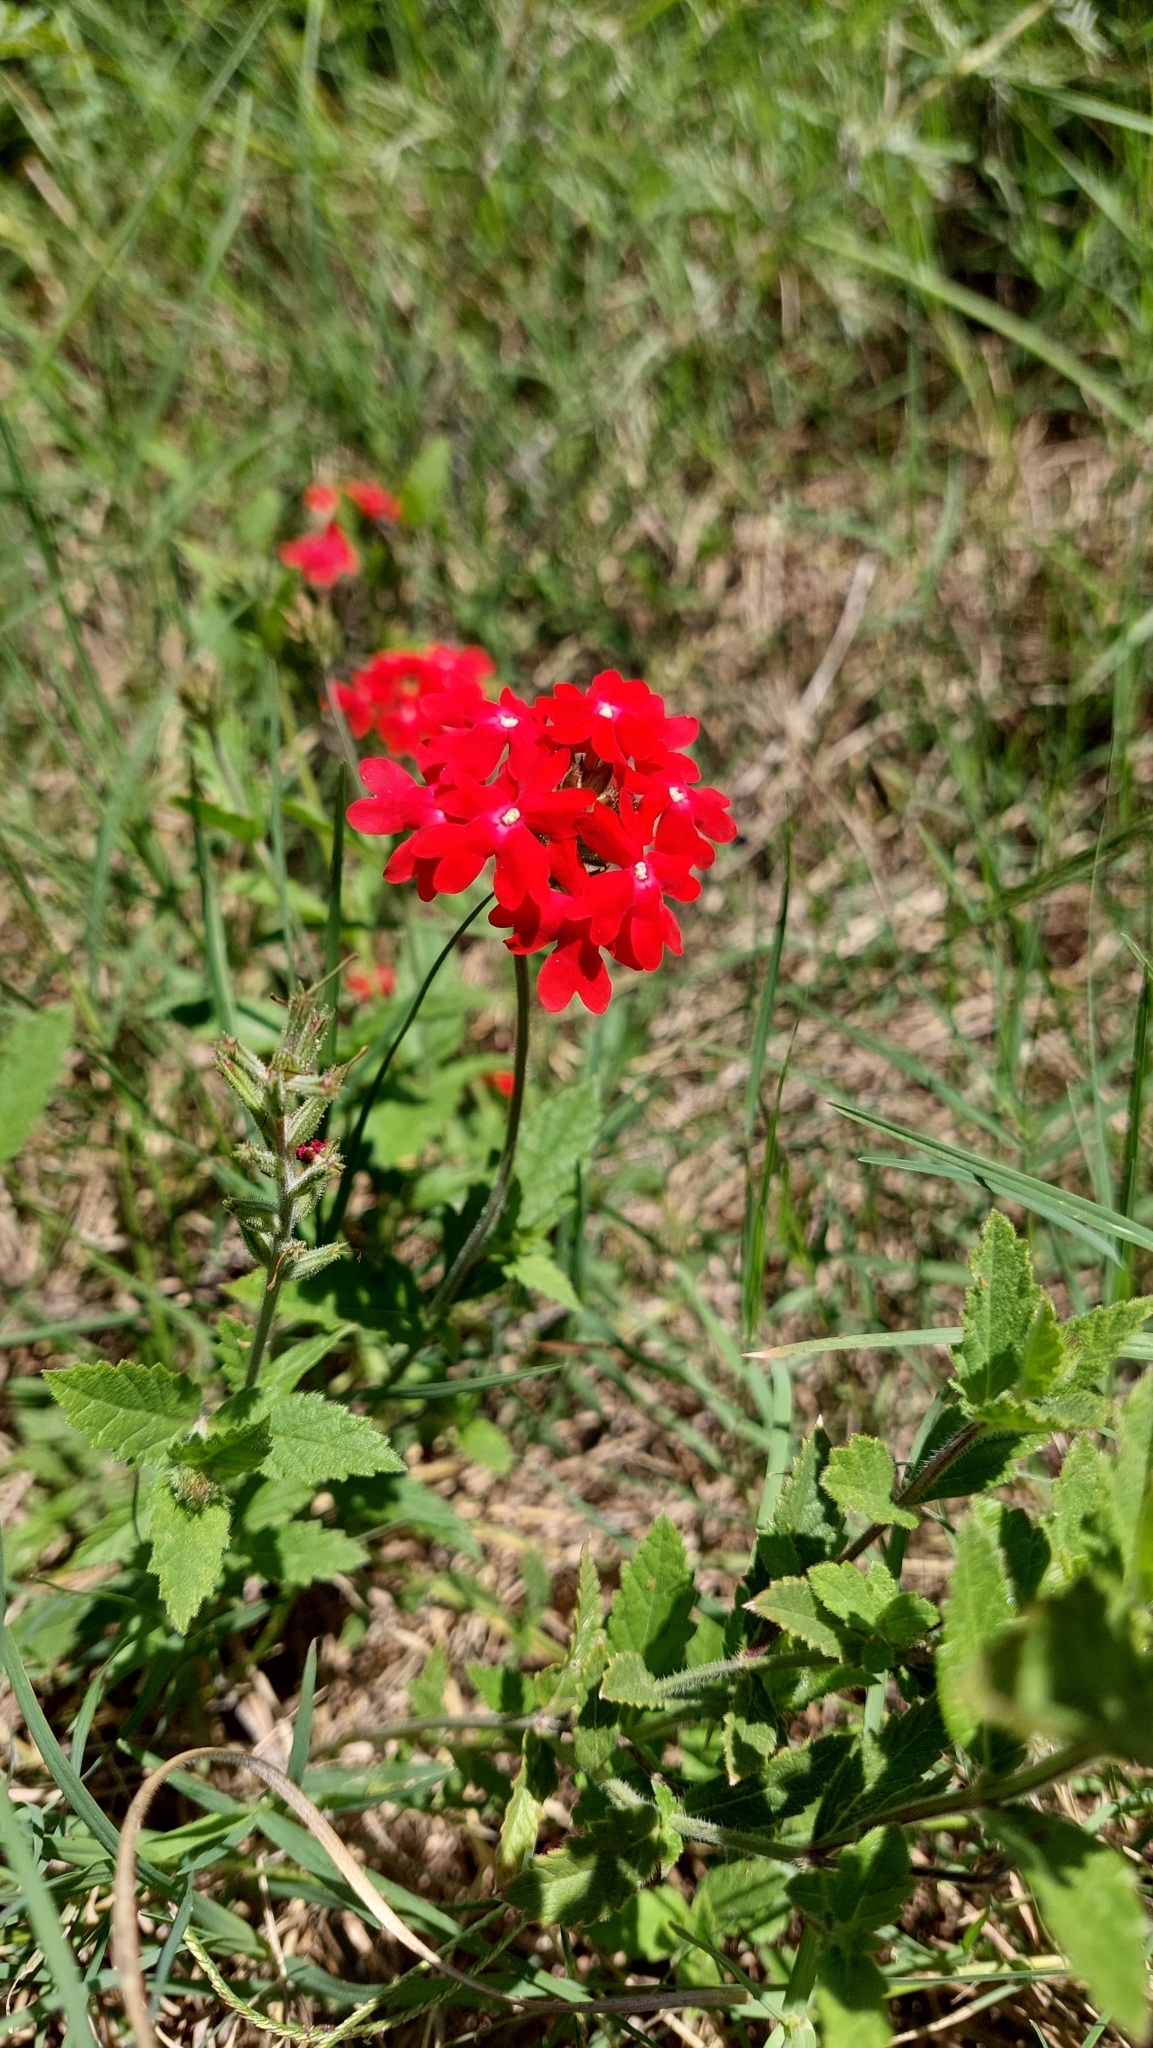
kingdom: Plantae
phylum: Tracheophyta
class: Magnoliopsida
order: Lamiales
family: Verbenaceae
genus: Verbena
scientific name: Verbena peruviana
